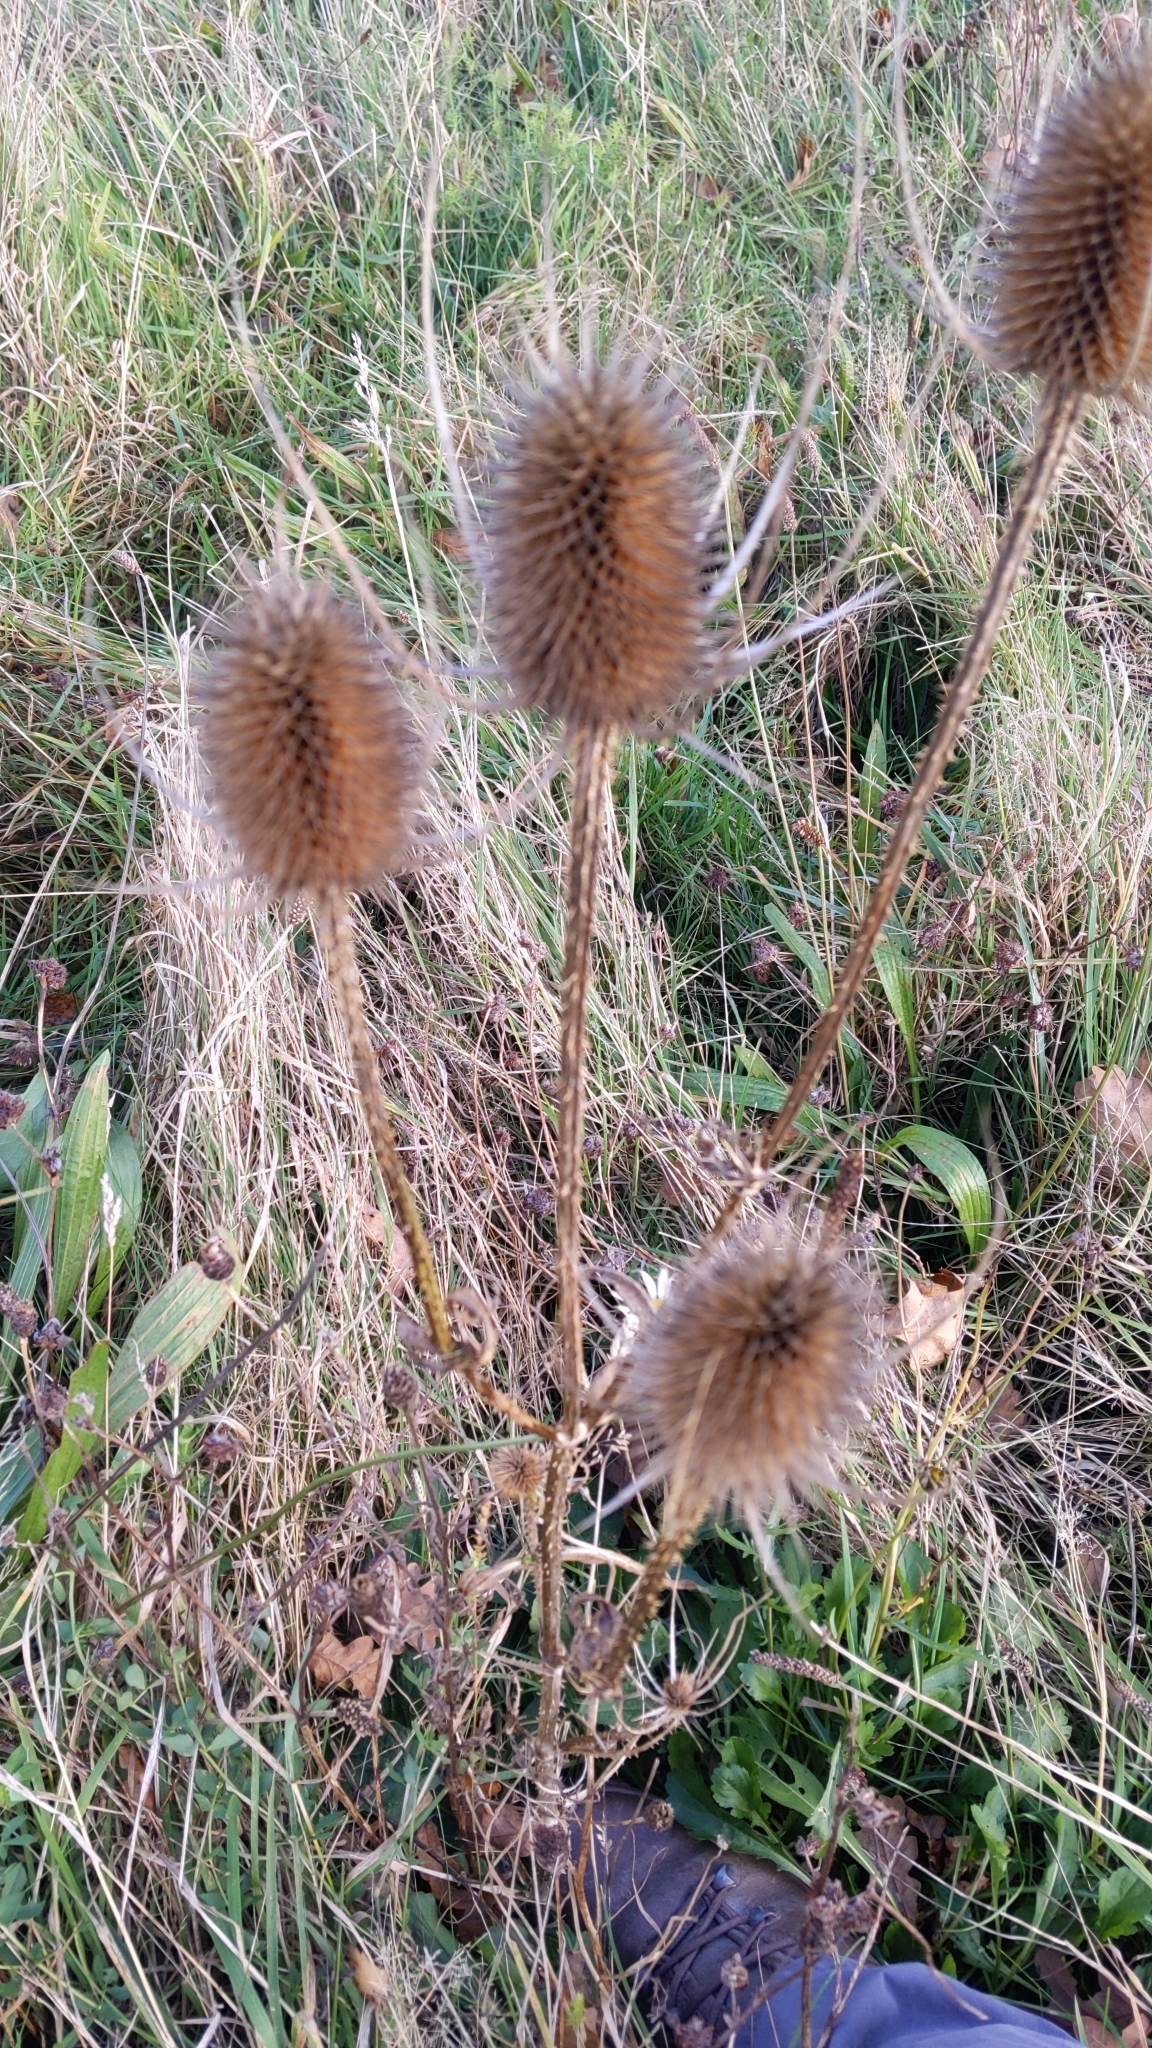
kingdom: Plantae
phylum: Tracheophyta
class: Magnoliopsida
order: Dipsacales
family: Caprifoliaceae
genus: Dipsacus
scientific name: Dipsacus fullonum
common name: Teasel
